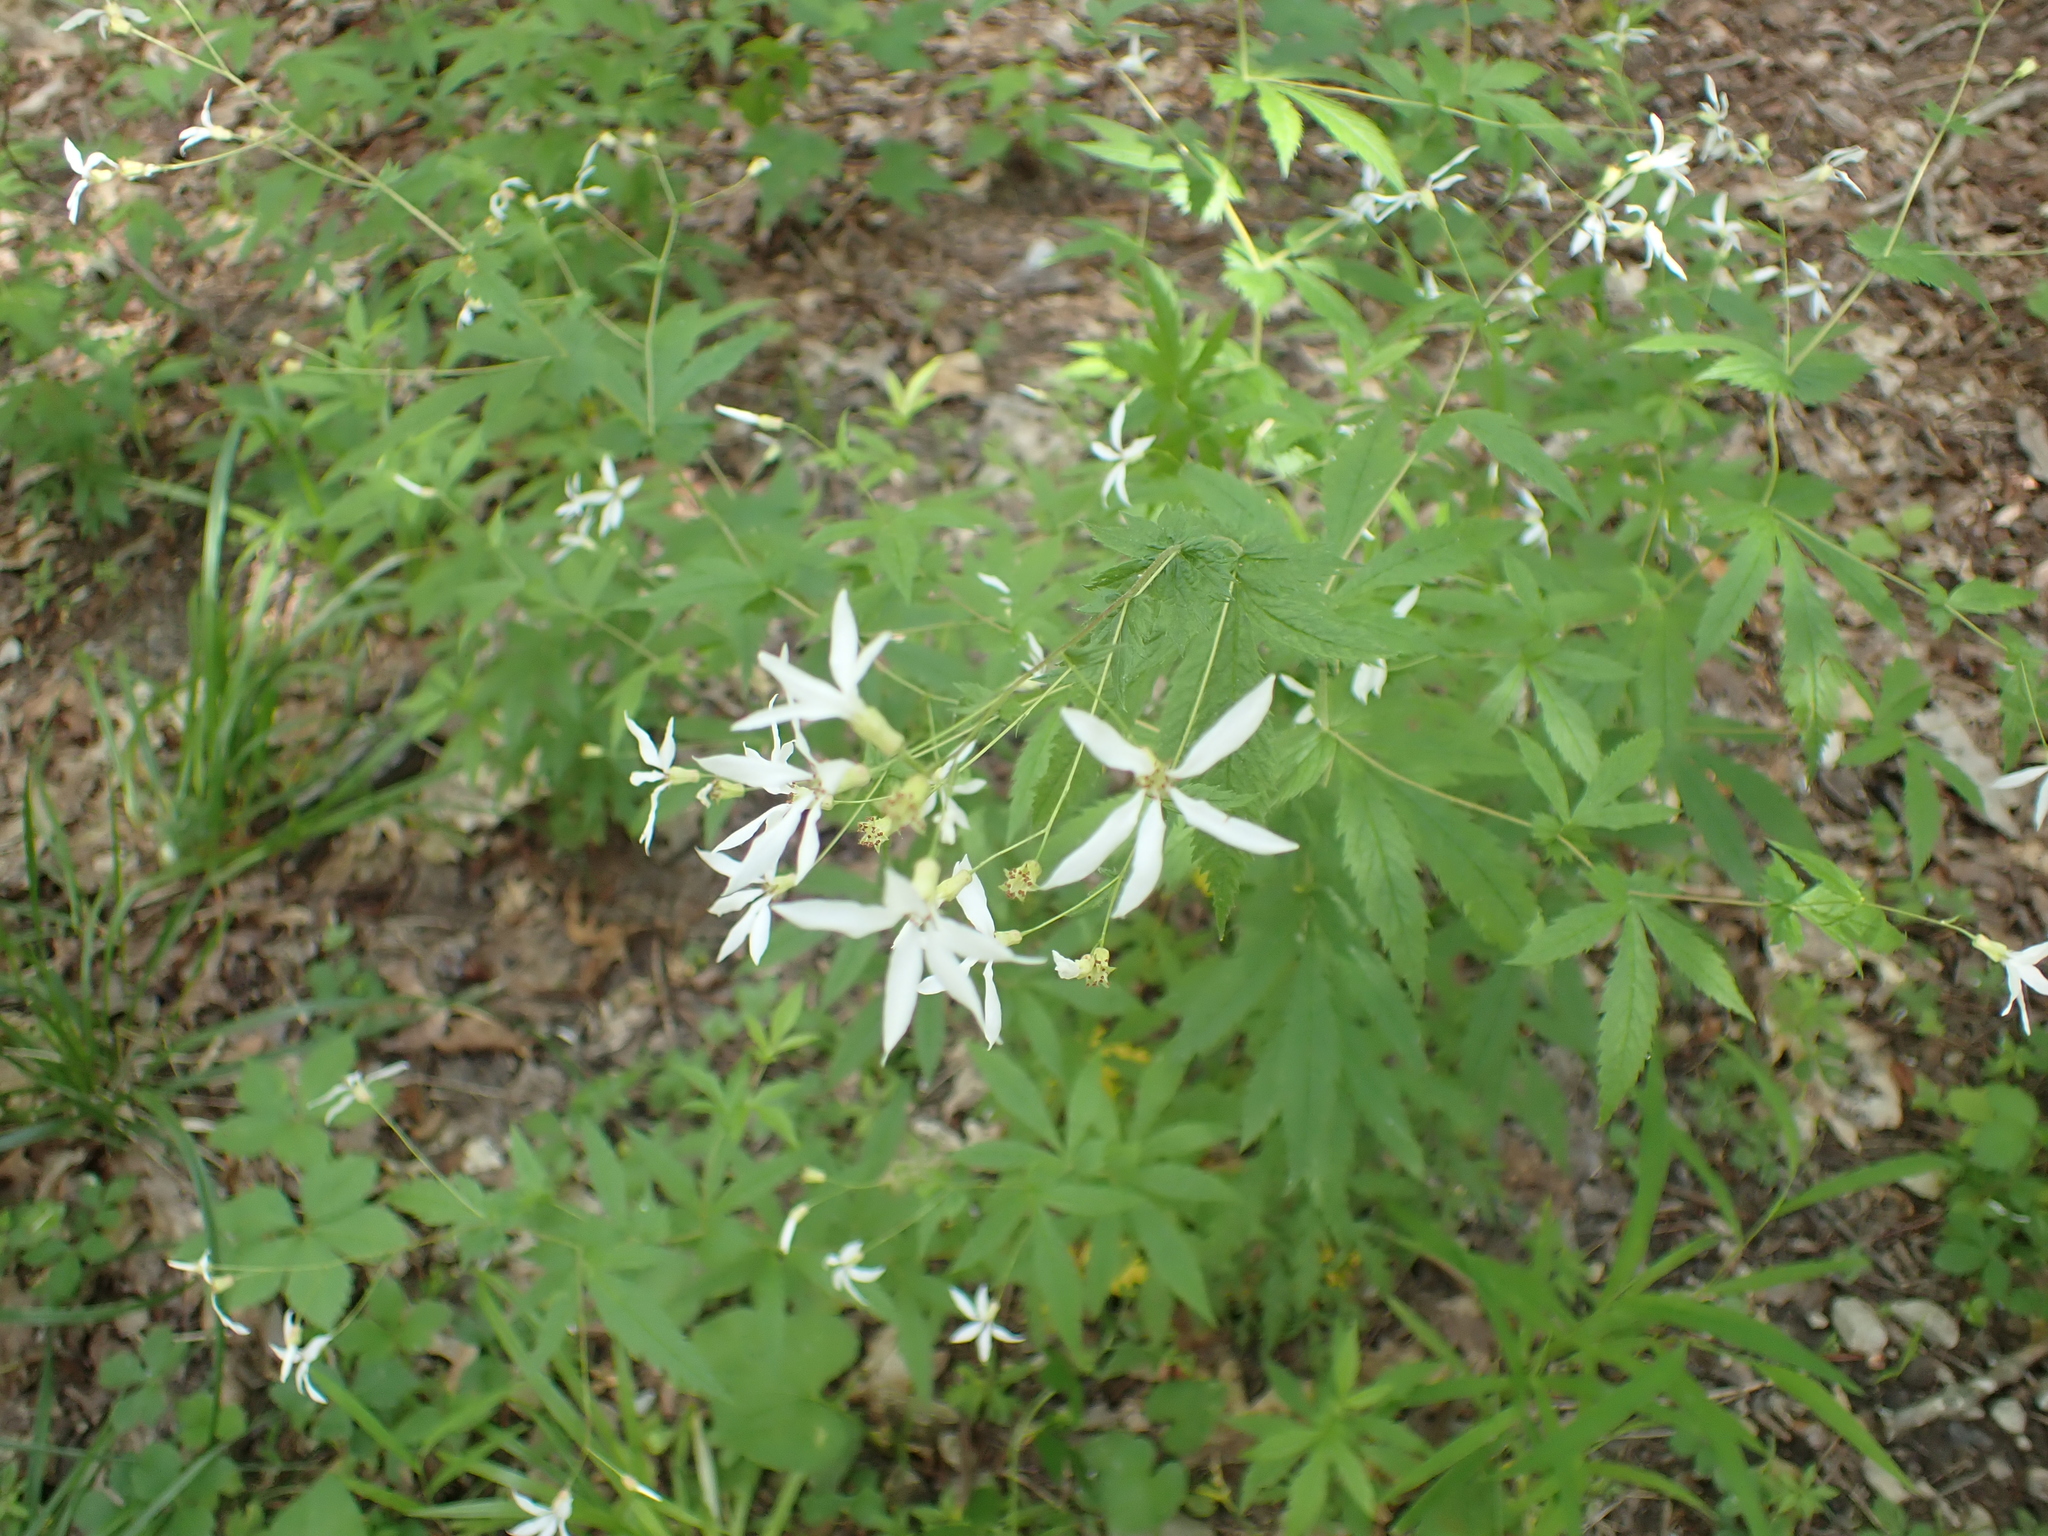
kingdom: Plantae
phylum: Tracheophyta
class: Magnoliopsida
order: Rosales
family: Rosaceae
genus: Gillenia
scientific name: Gillenia stipulata
